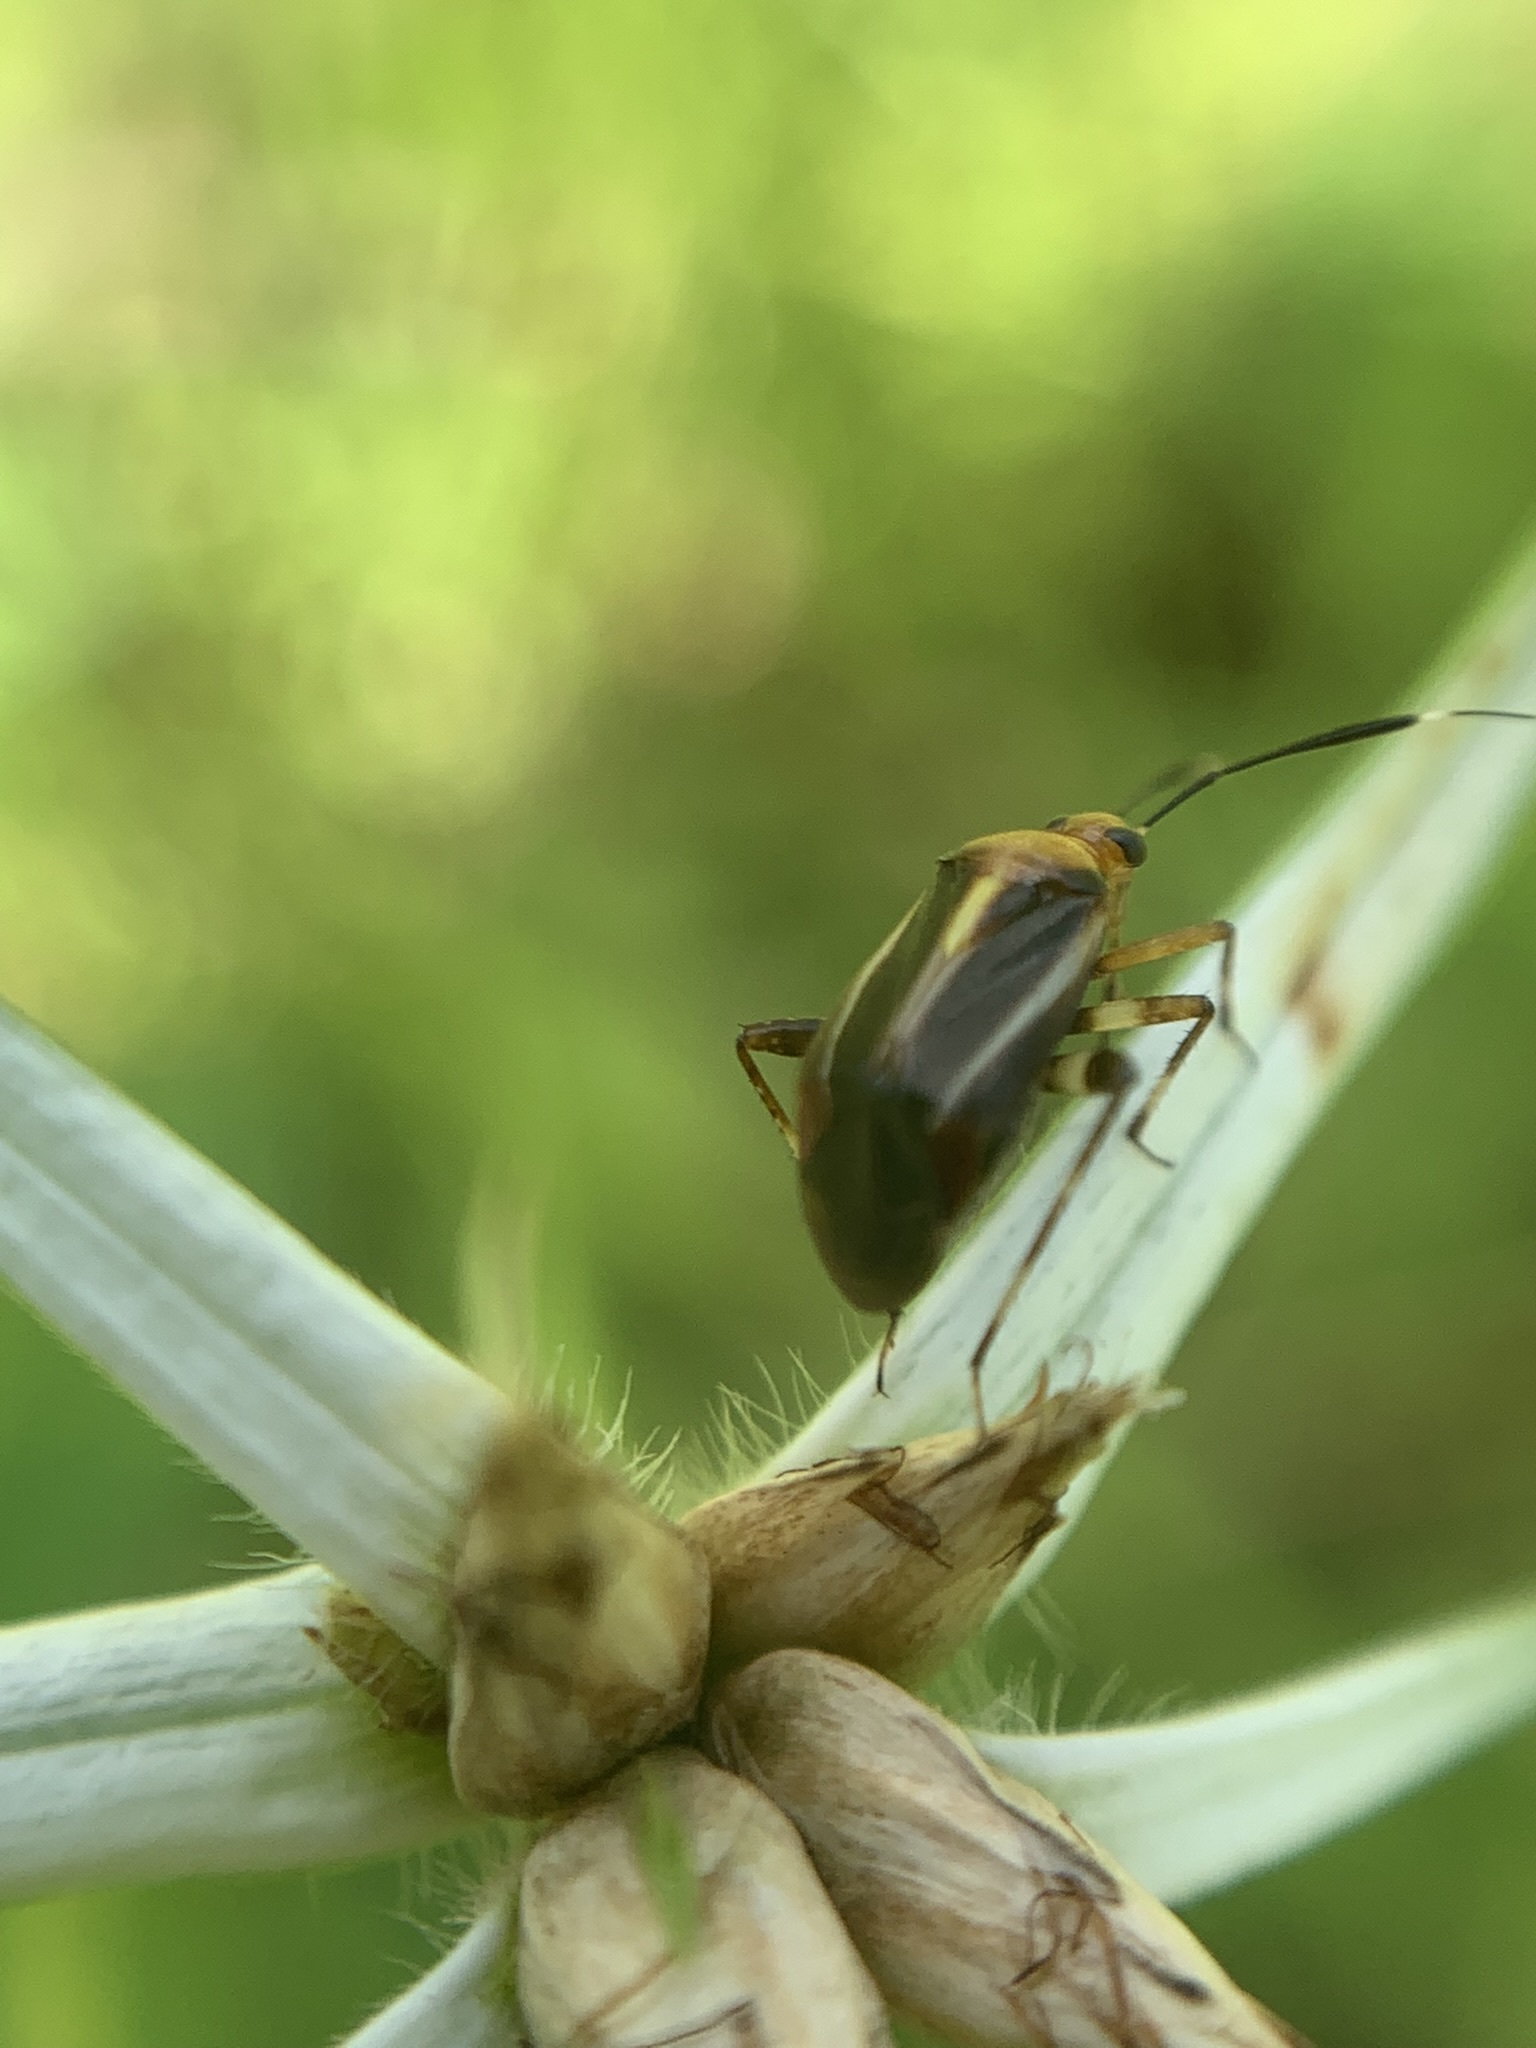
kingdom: Animalia
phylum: Arthropoda
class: Insecta
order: Hemiptera
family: Miridae
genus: Horciasinus
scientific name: Horciasinus signoreti
